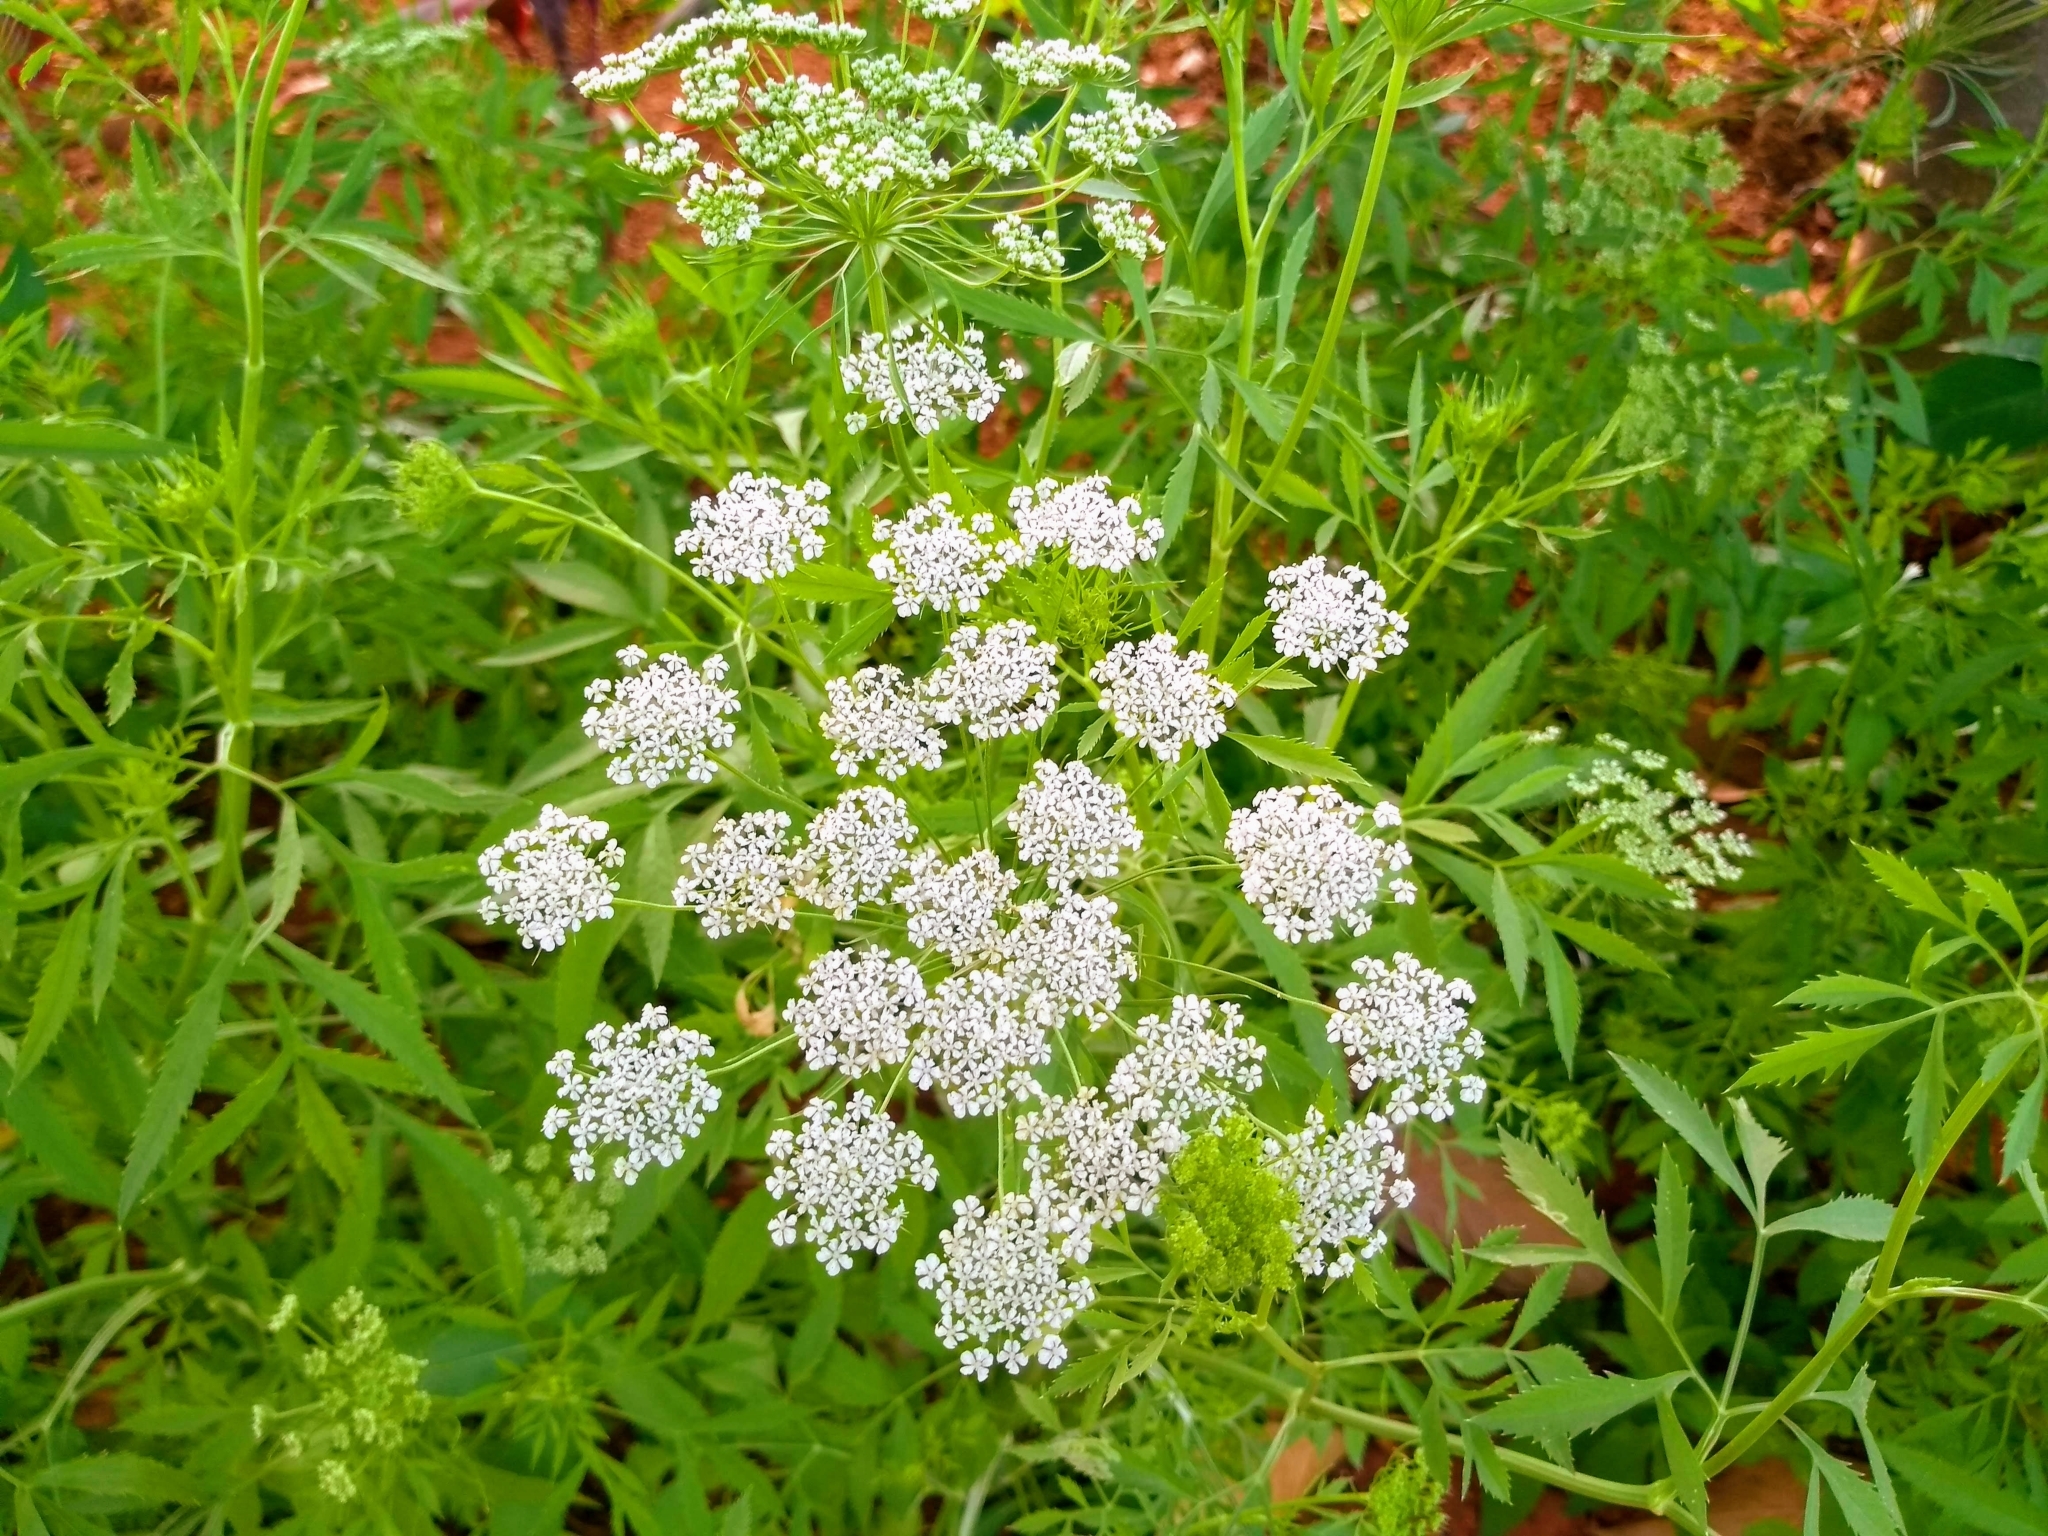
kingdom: Plantae
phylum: Tracheophyta
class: Magnoliopsida
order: Apiales
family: Apiaceae
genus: Oenanthe
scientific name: Oenanthe javanica
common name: Java water-dropwort
